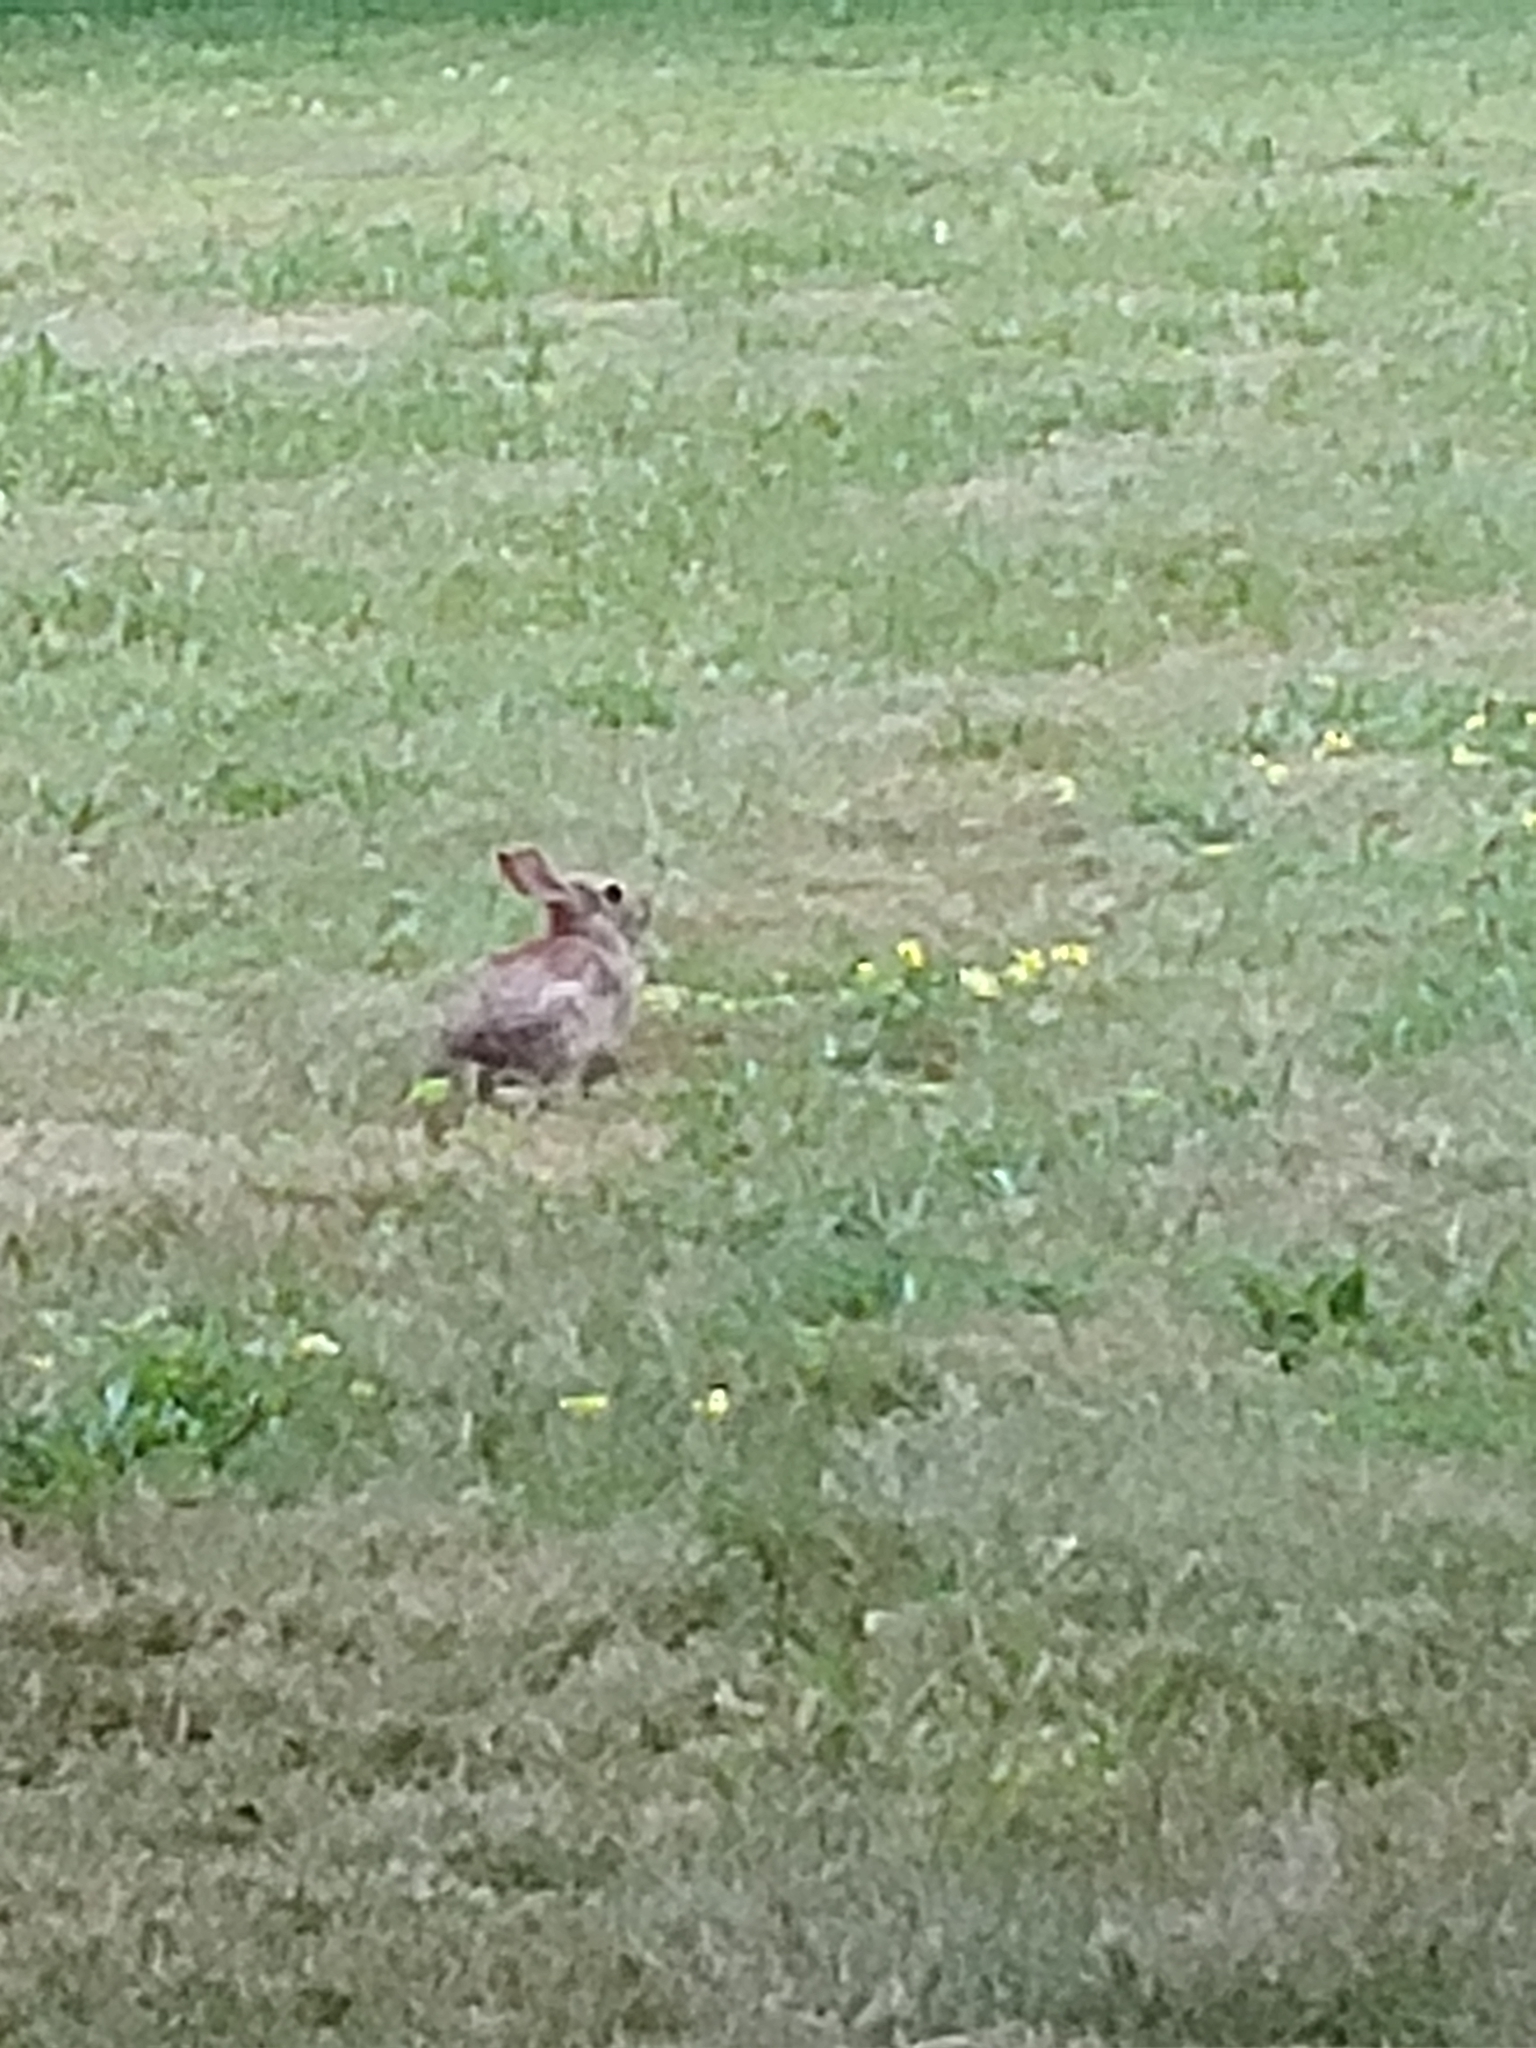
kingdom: Animalia
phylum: Chordata
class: Mammalia
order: Lagomorpha
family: Leporidae
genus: Sylvilagus
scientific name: Sylvilagus floridanus
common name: Eastern cottontail
